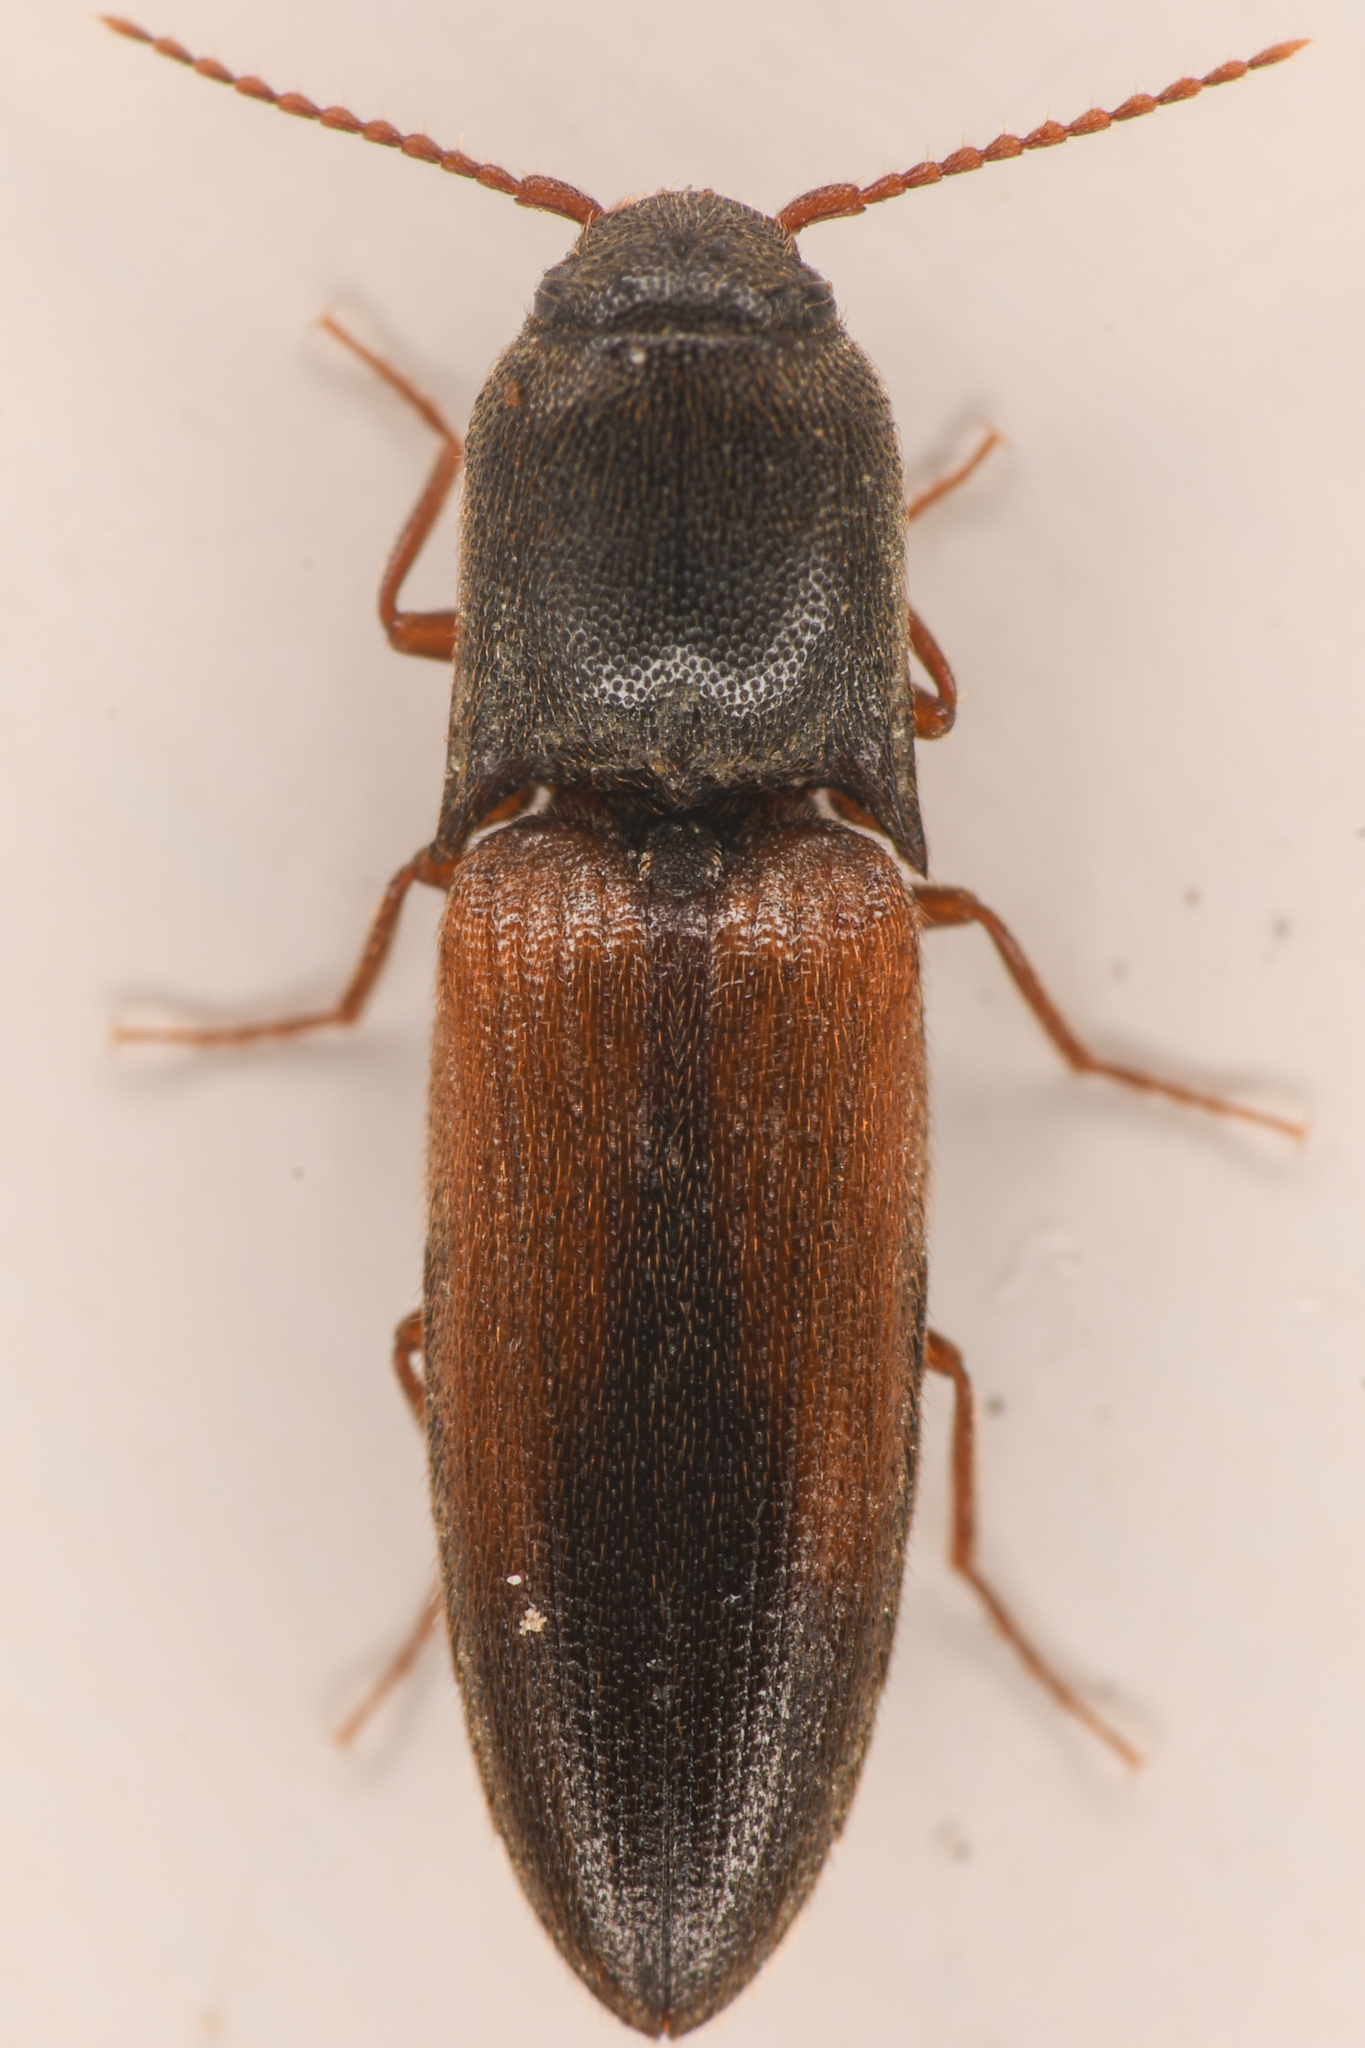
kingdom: Animalia
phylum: Arthropoda
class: Insecta
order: Coleoptera
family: Elateridae
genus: Agriotes
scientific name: Agriotes thevenetii
